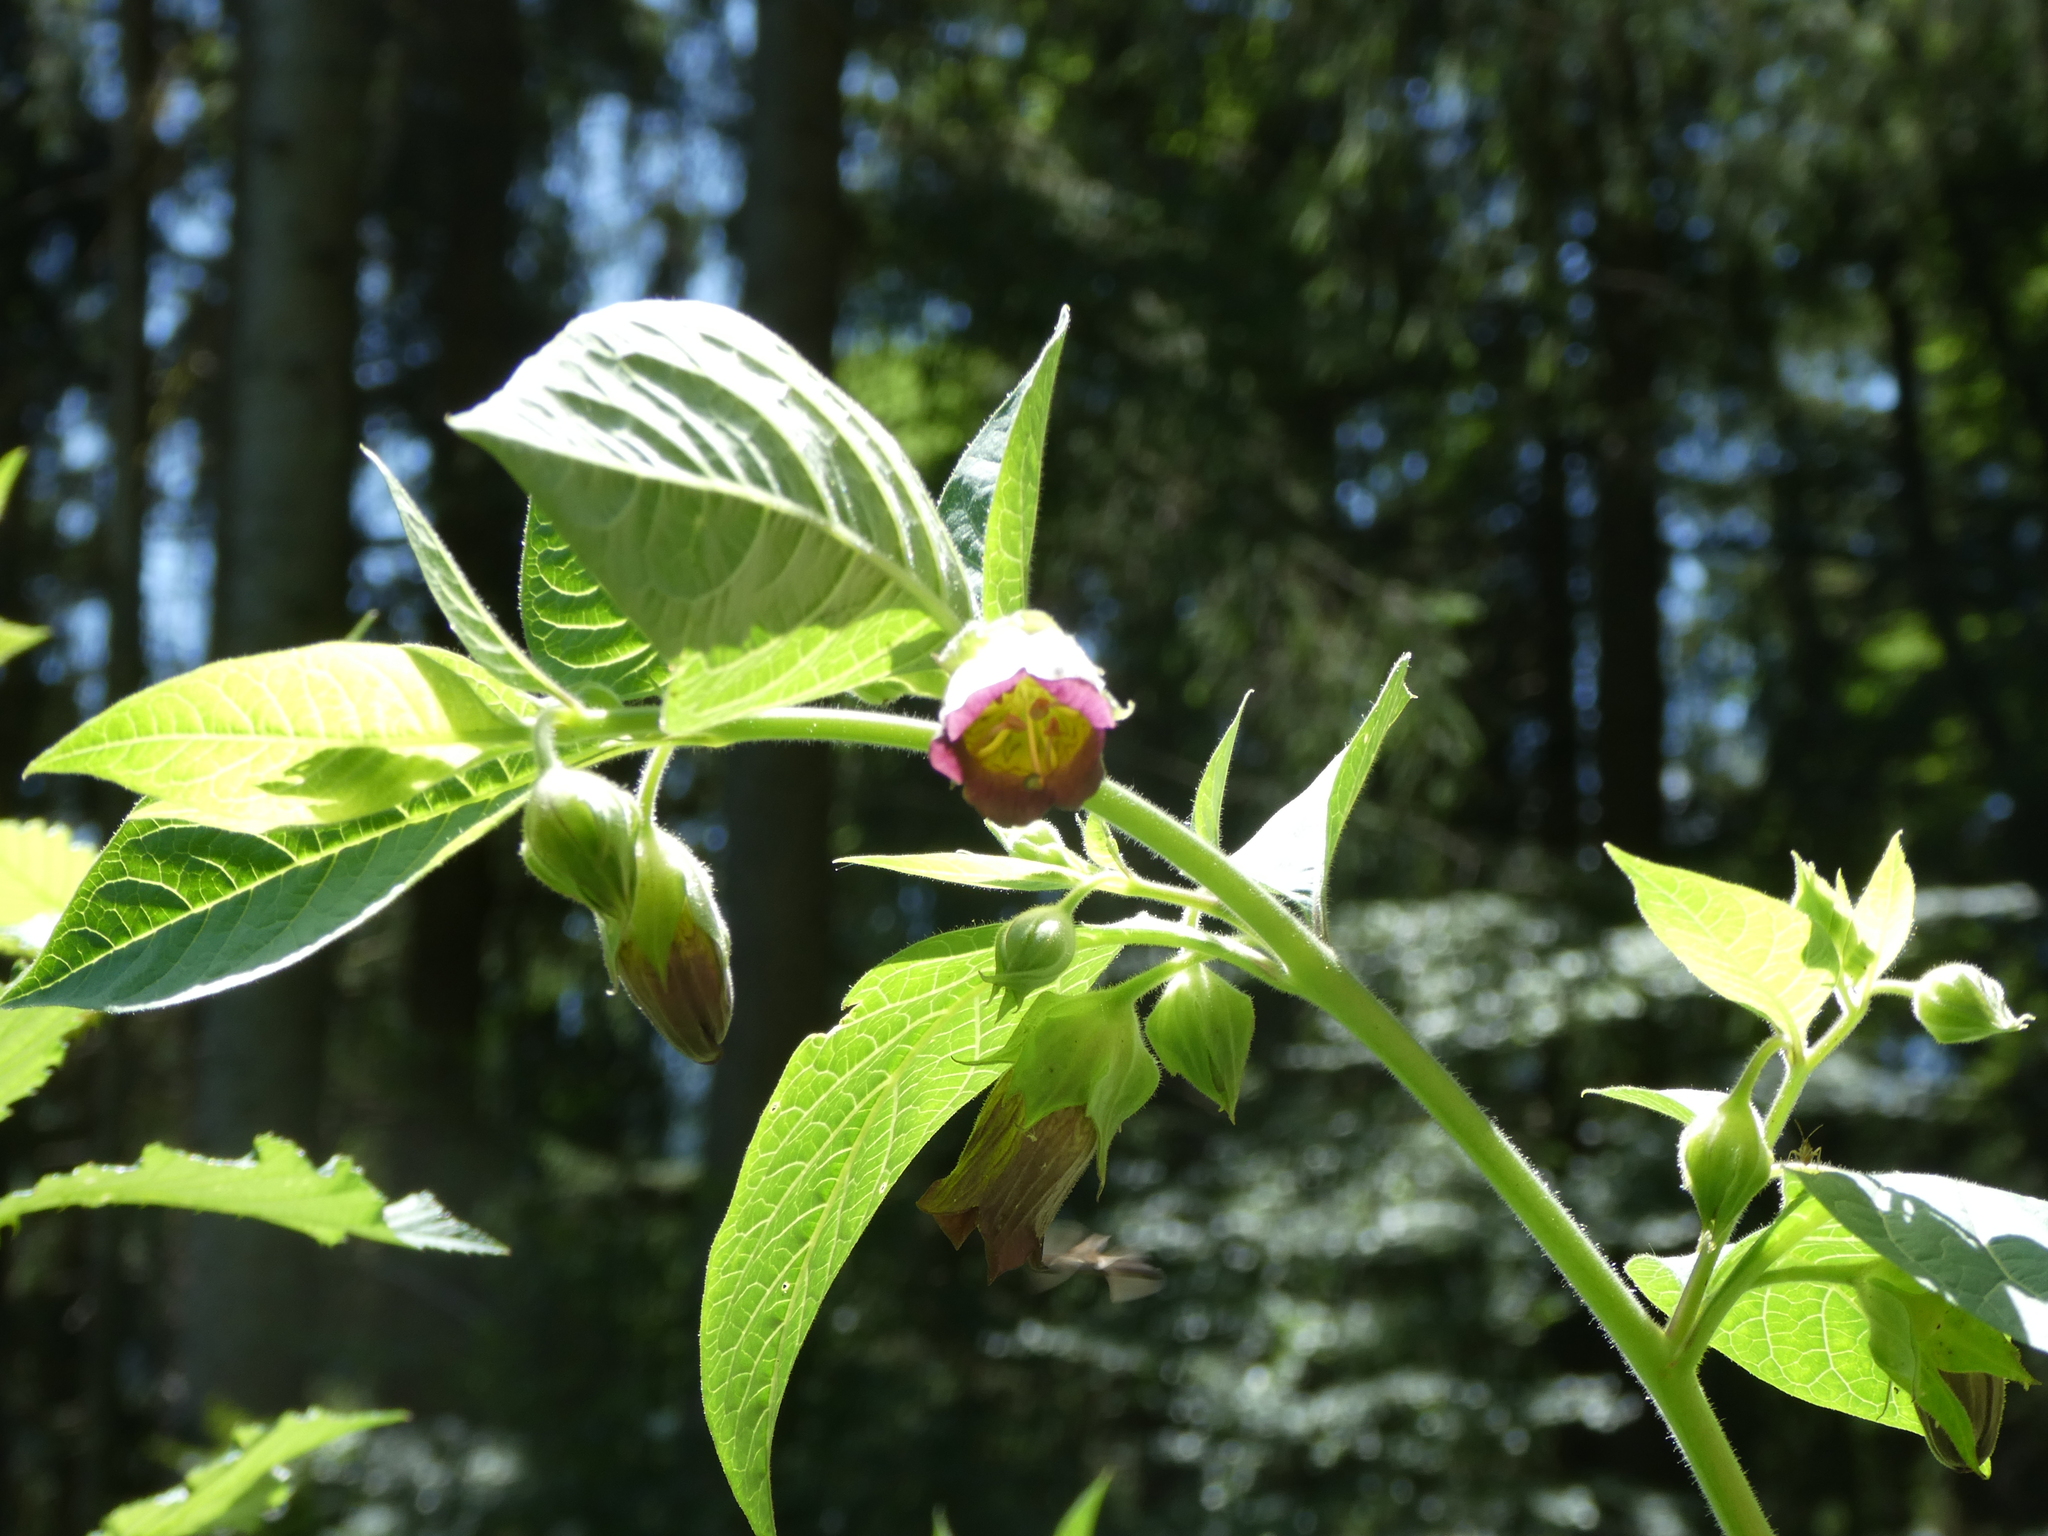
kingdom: Plantae
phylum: Tracheophyta
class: Magnoliopsida
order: Solanales
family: Solanaceae
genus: Atropa
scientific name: Atropa belladonna
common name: Deadly nightshade
